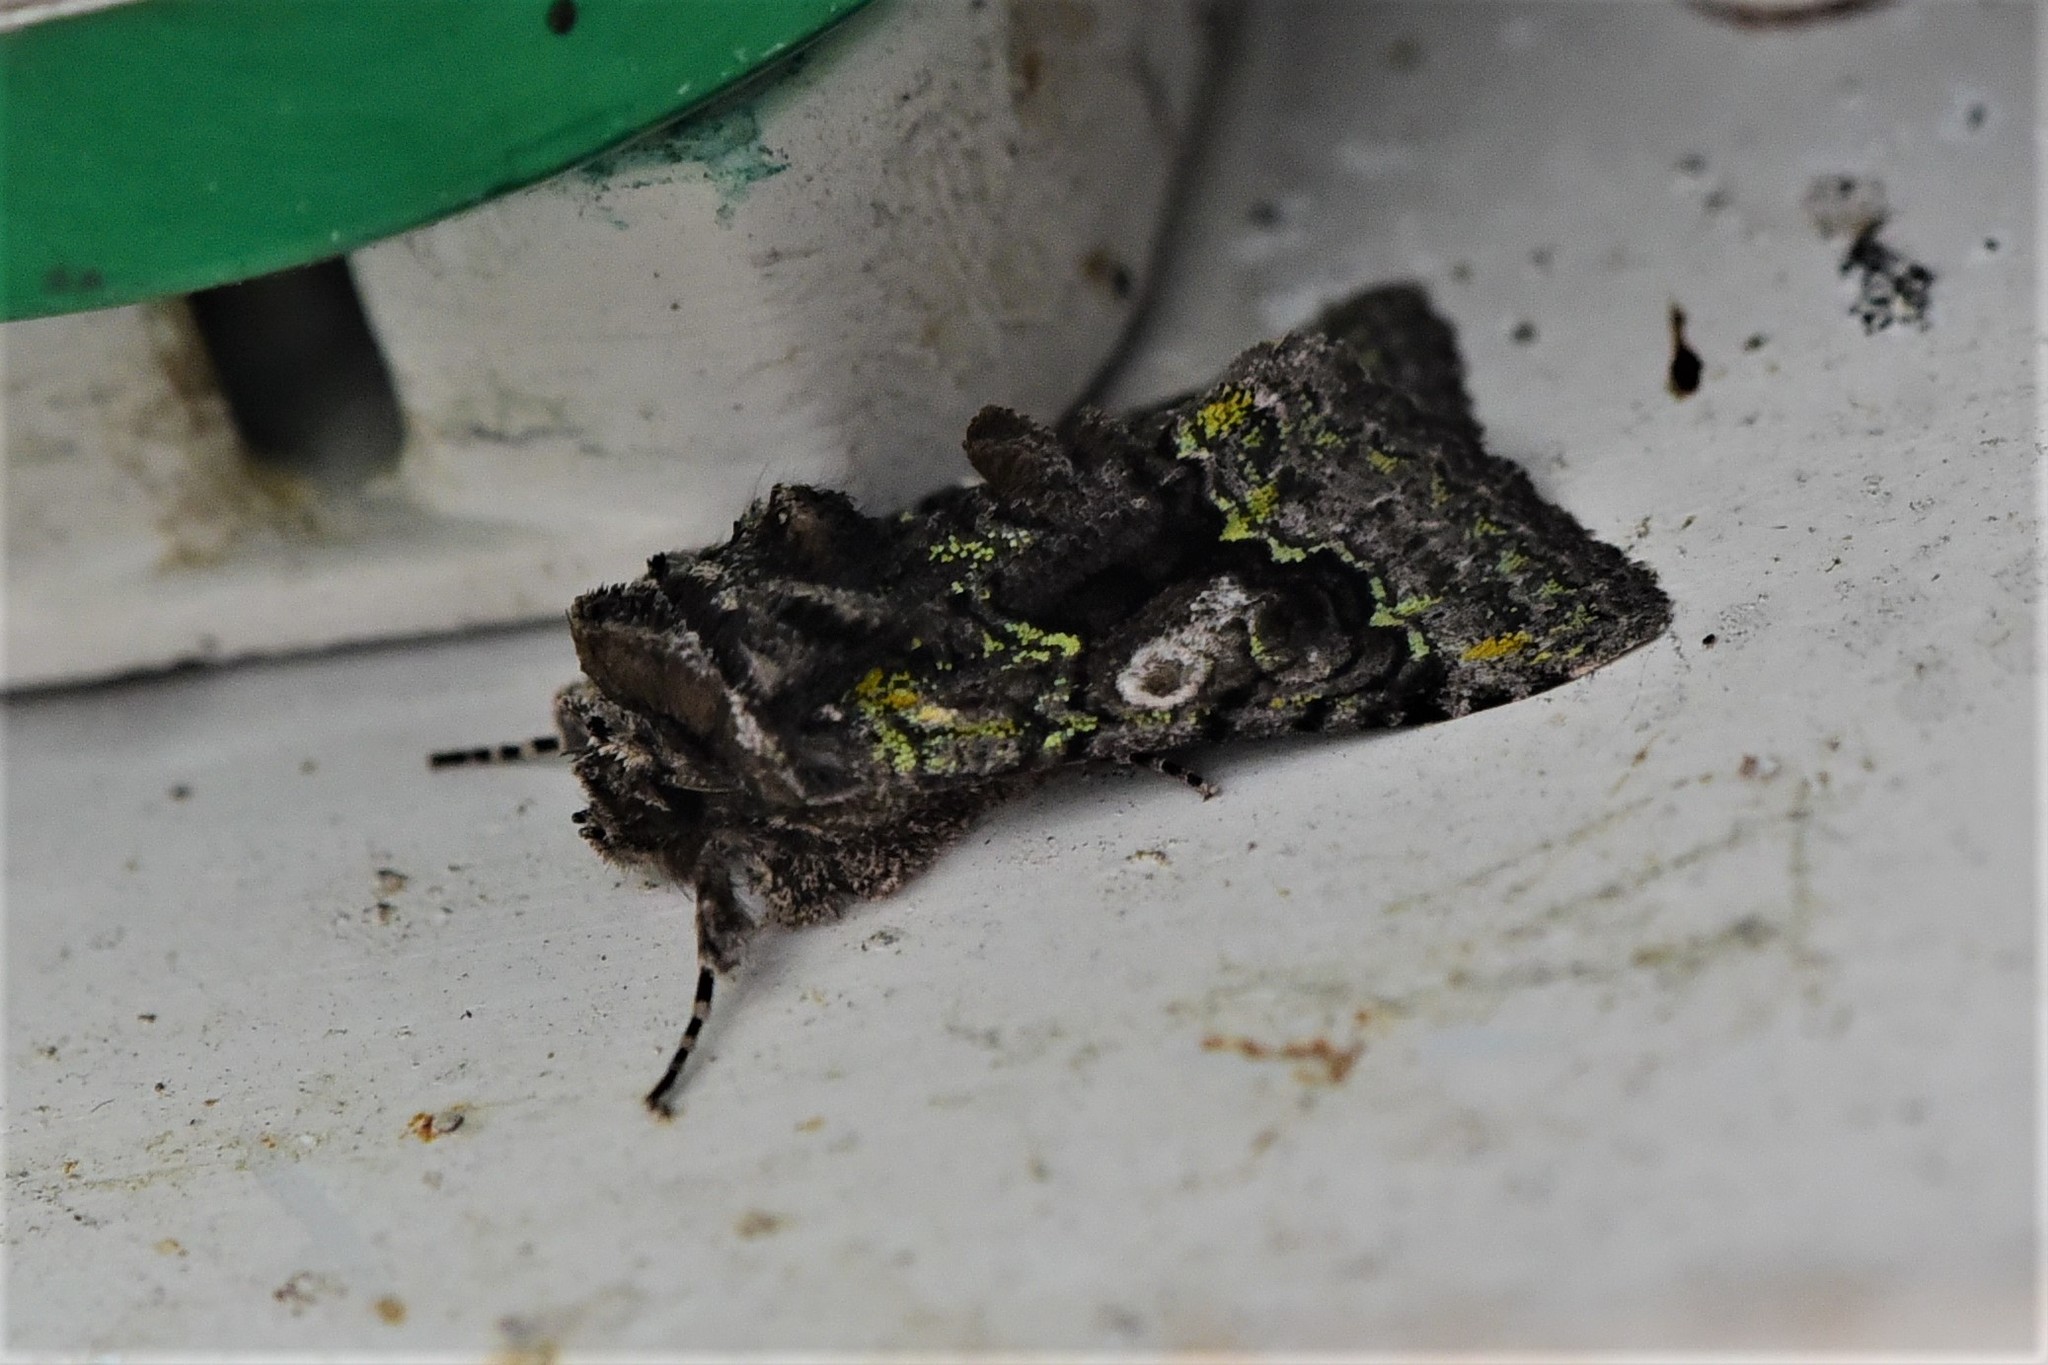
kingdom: Animalia
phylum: Arthropoda
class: Insecta
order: Lepidoptera
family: Noctuidae
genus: Behrensia
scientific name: Behrensia conchiformis
